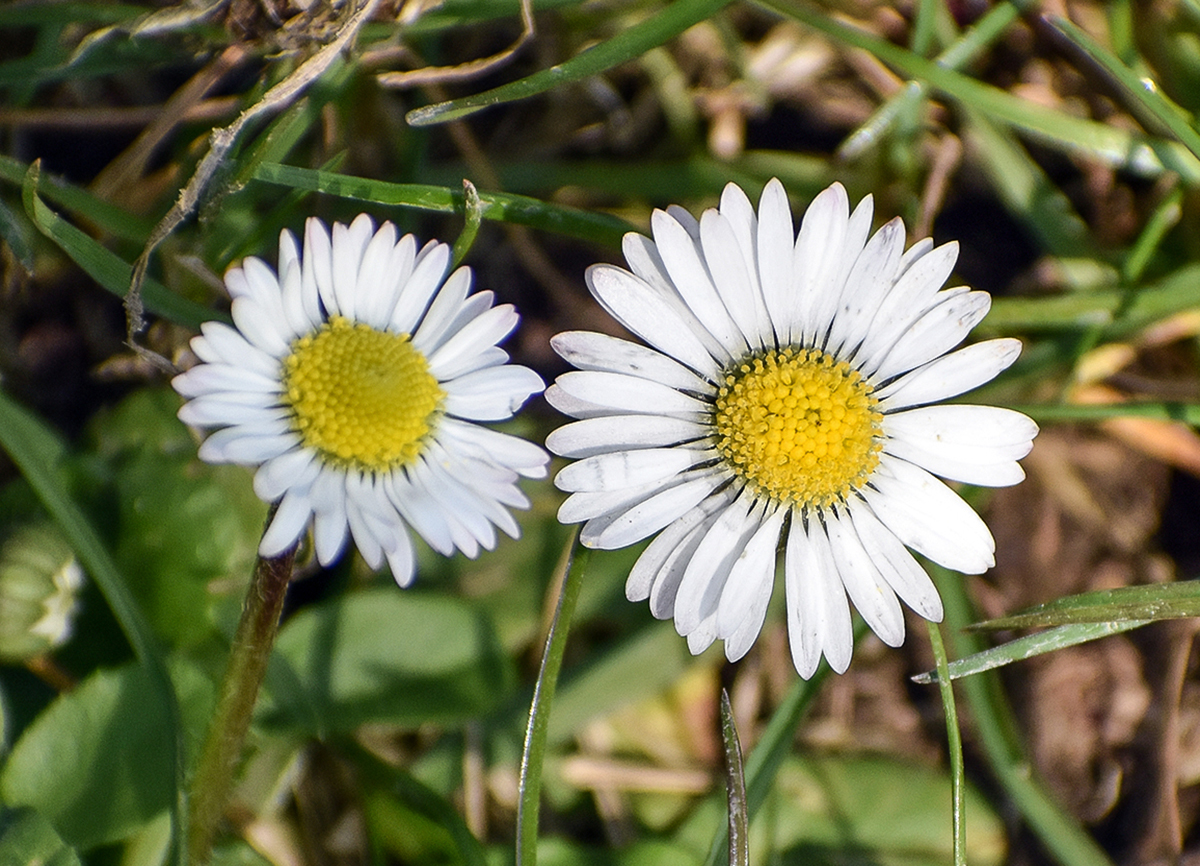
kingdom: Plantae
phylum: Tracheophyta
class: Magnoliopsida
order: Asterales
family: Asteraceae
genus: Bellis
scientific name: Bellis perennis
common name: Lawndaisy
